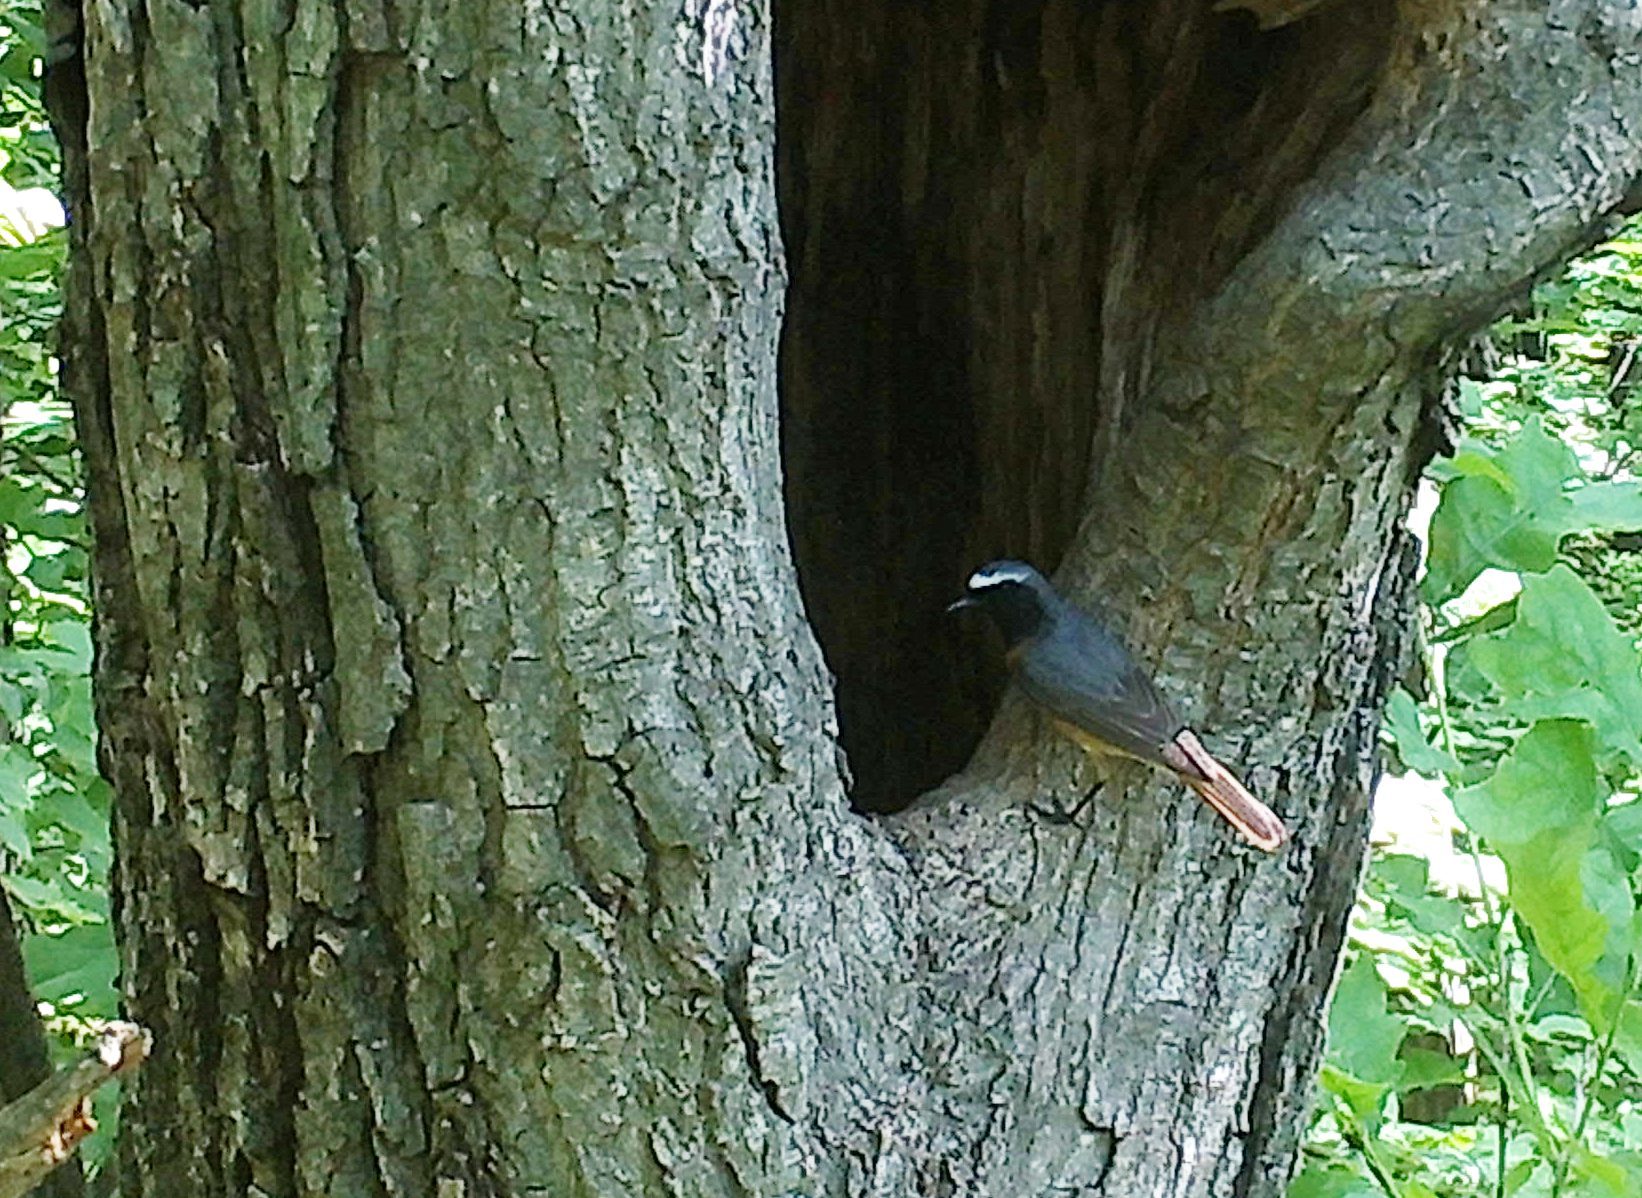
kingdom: Animalia
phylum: Chordata
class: Aves
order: Passeriformes
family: Muscicapidae
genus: Phoenicurus
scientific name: Phoenicurus phoenicurus
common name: Common redstart
